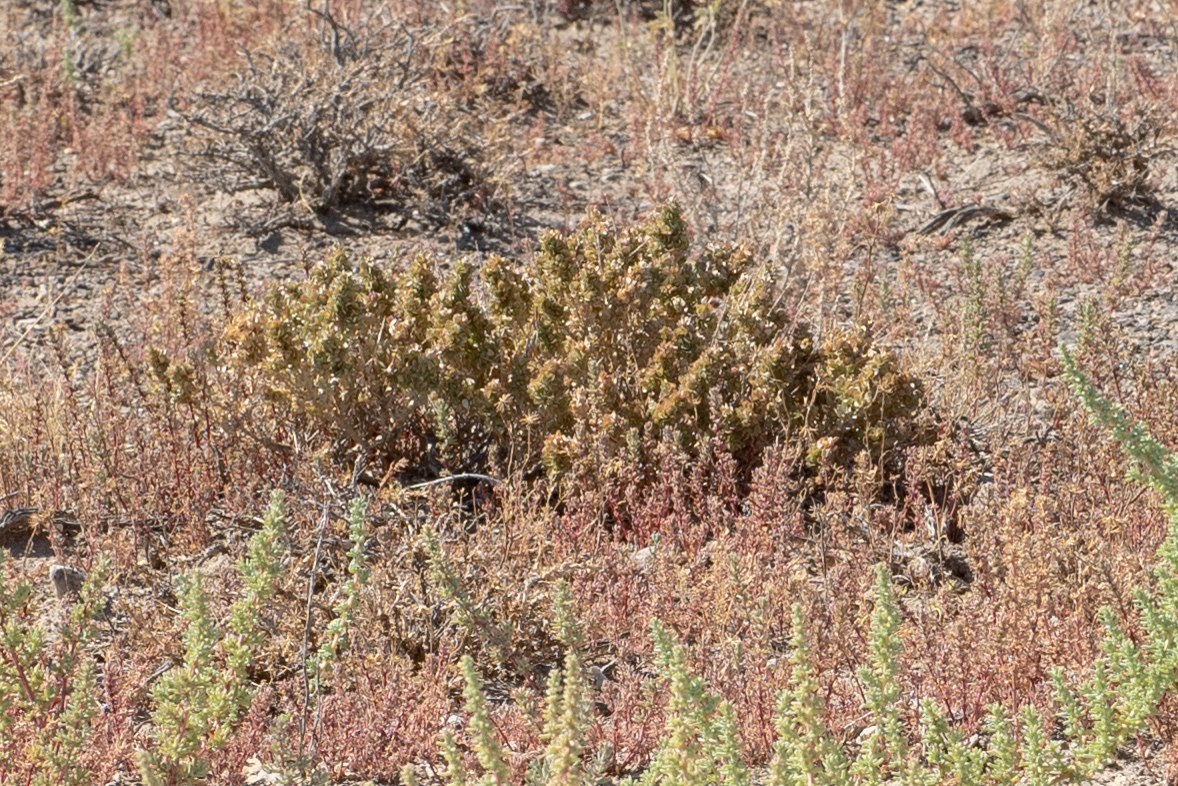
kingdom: Plantae
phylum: Tracheophyta
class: Magnoliopsida
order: Caryophyllales
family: Amaranthaceae
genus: Atriplex
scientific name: Atriplex confertifolia
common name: Shadscale
